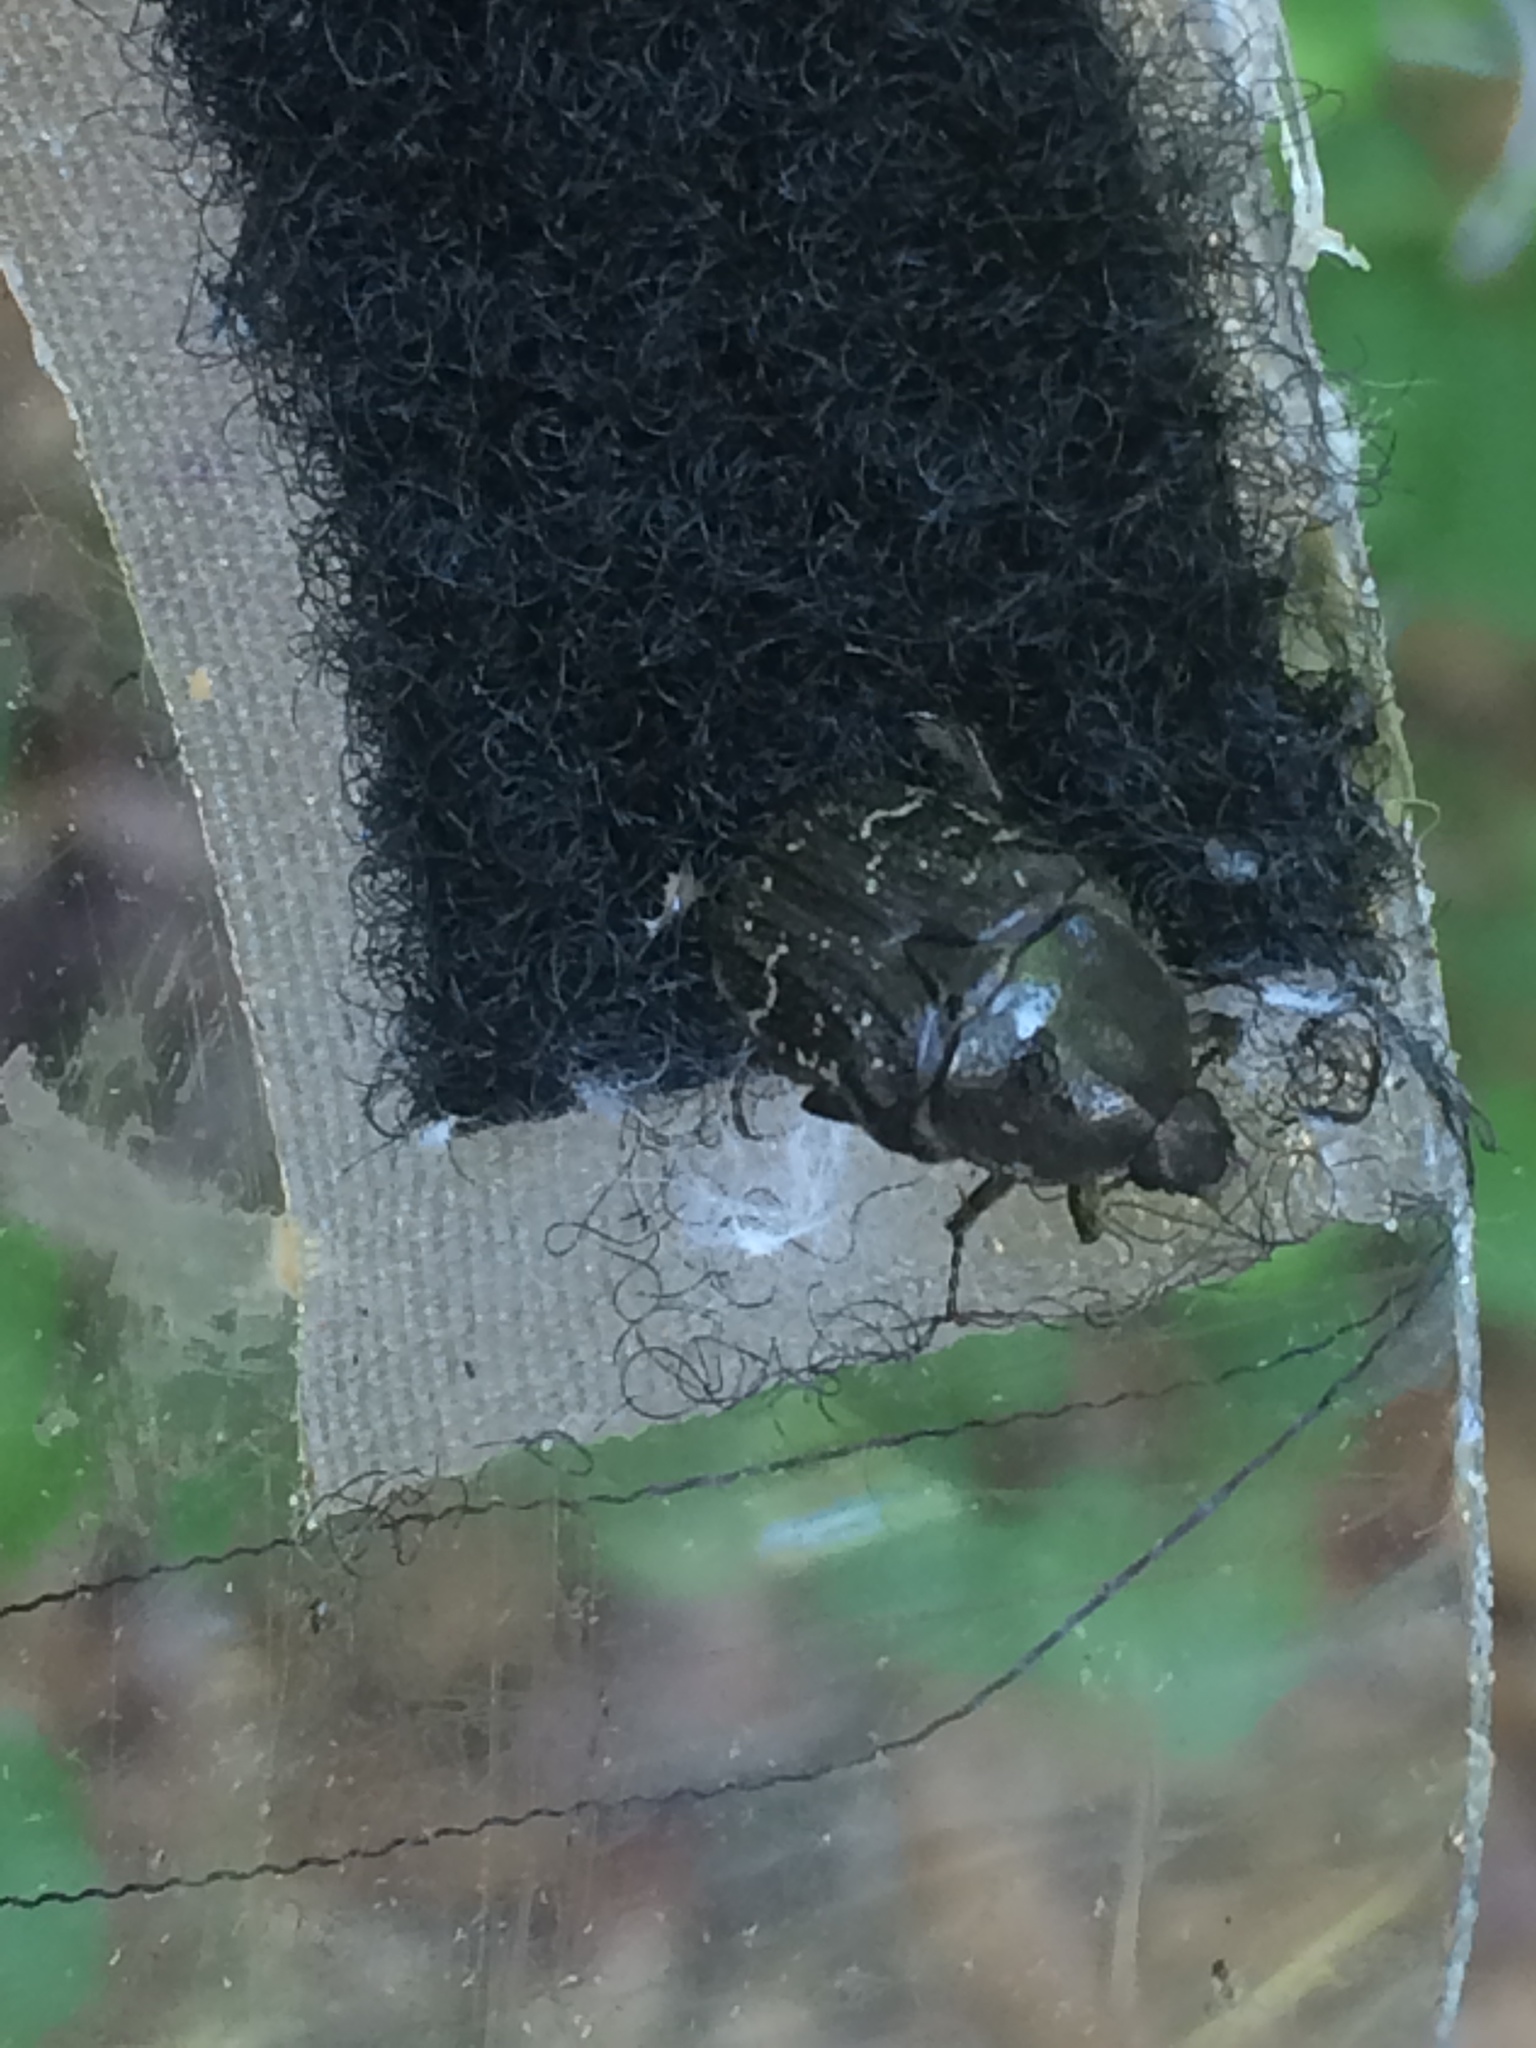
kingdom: Animalia
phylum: Arthropoda
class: Insecta
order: Coleoptera
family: Scarabaeidae
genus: Euphoria
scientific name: Euphoria sepulcralis
